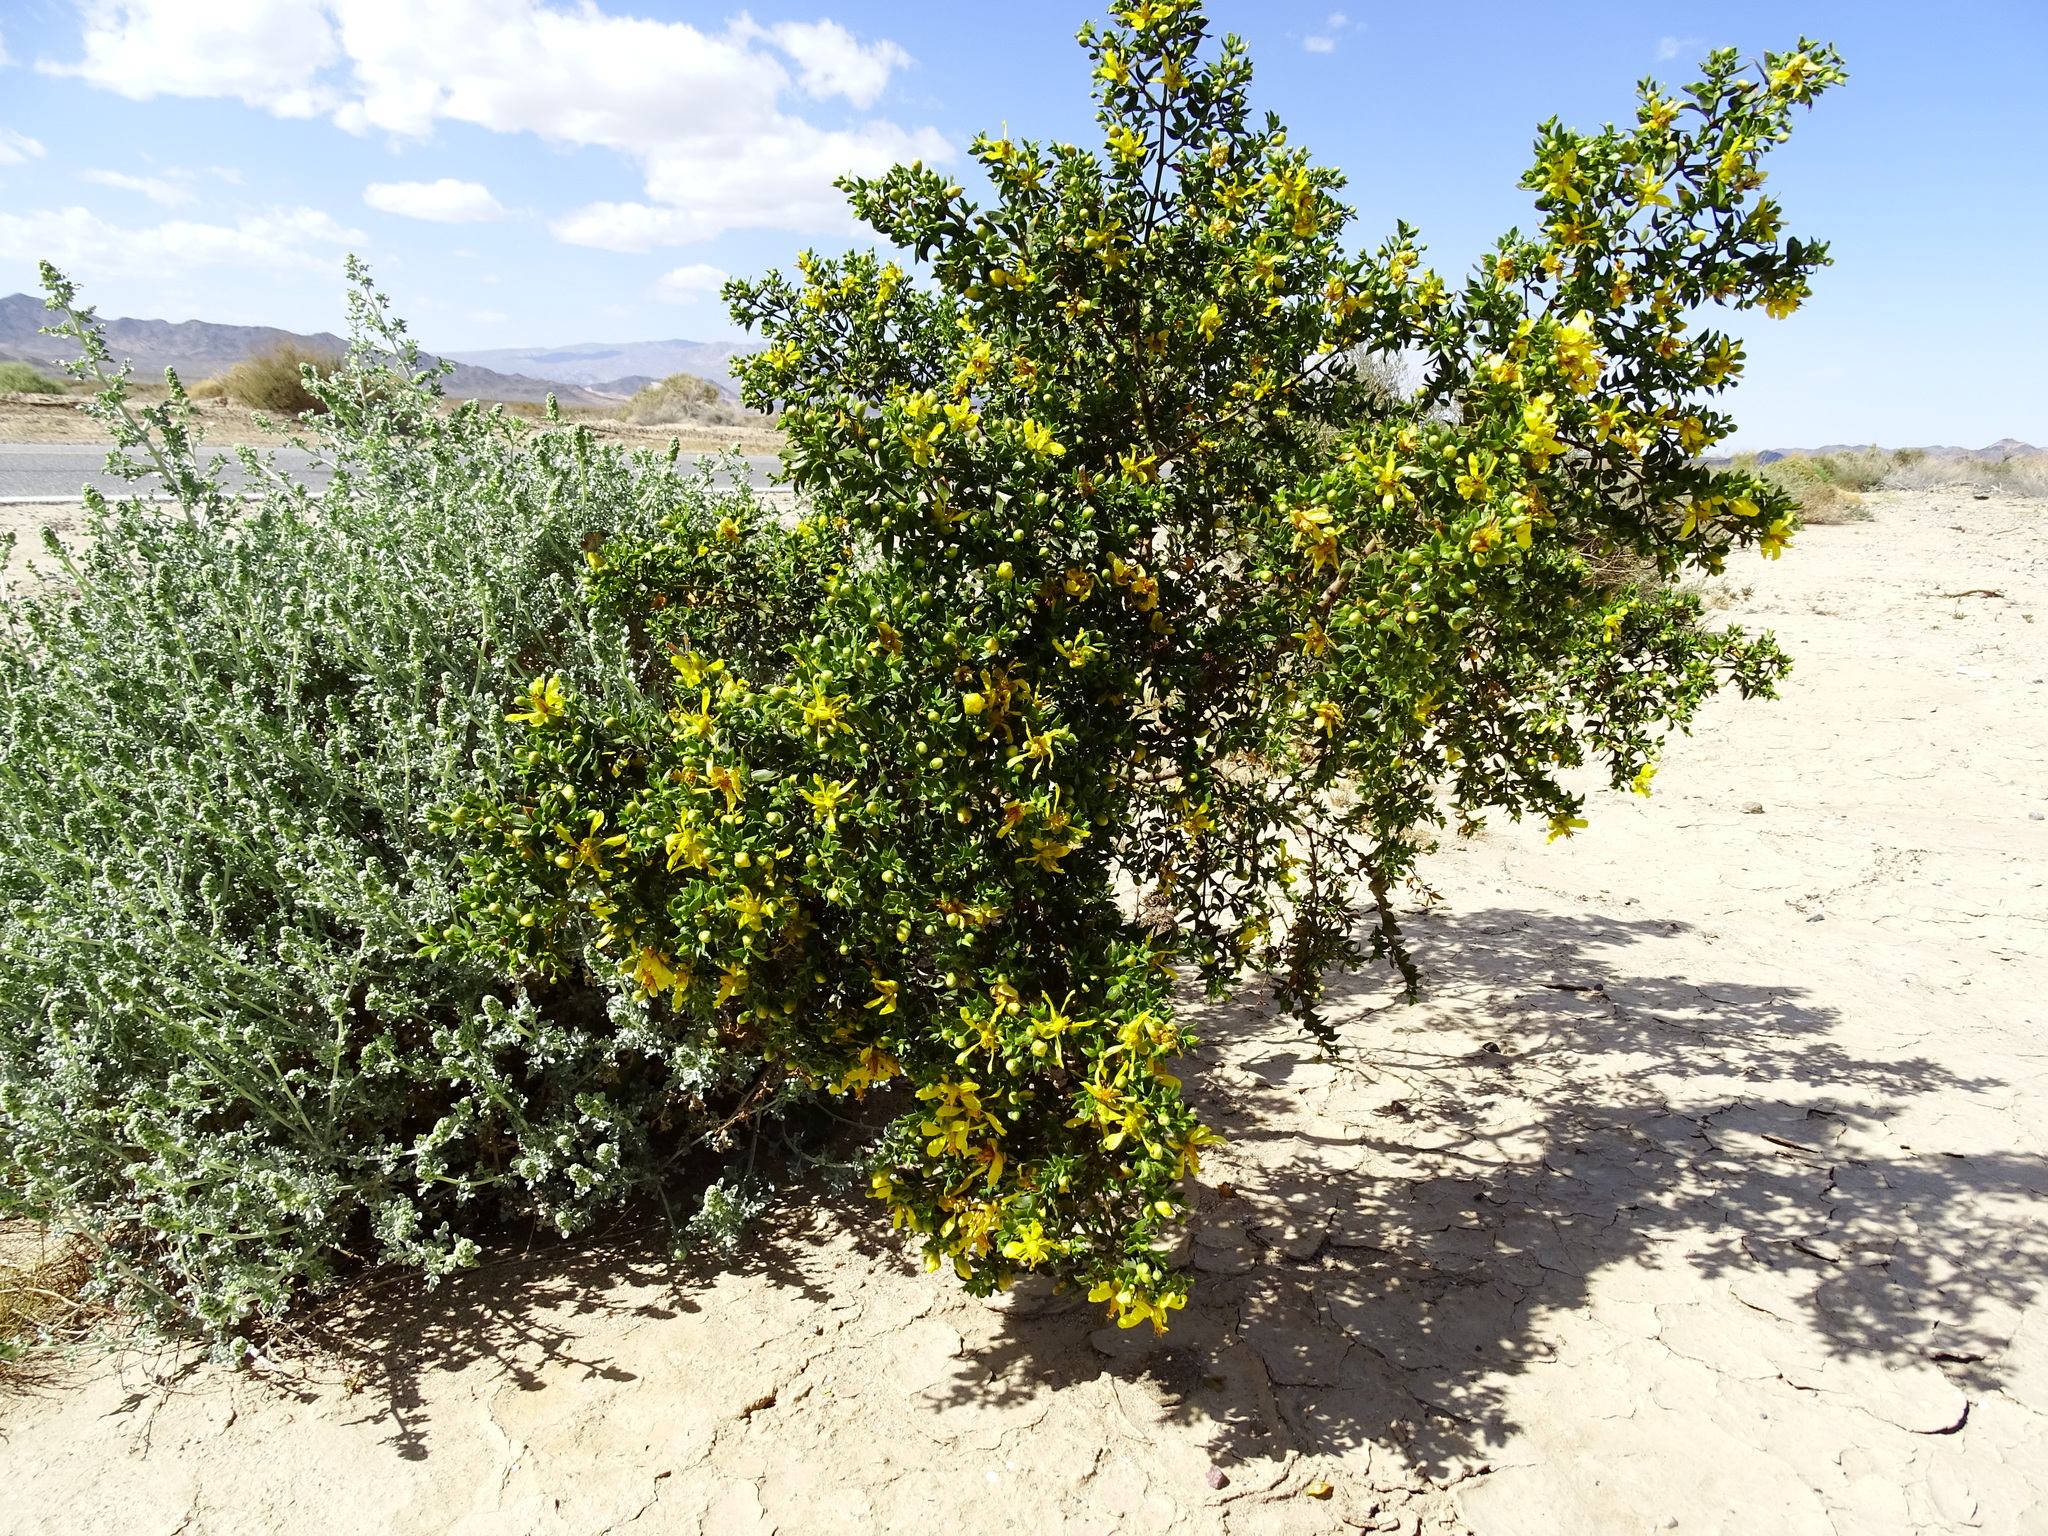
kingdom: Plantae
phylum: Tracheophyta
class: Magnoliopsida
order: Zygophyllales
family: Zygophyllaceae
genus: Larrea
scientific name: Larrea tridentata
